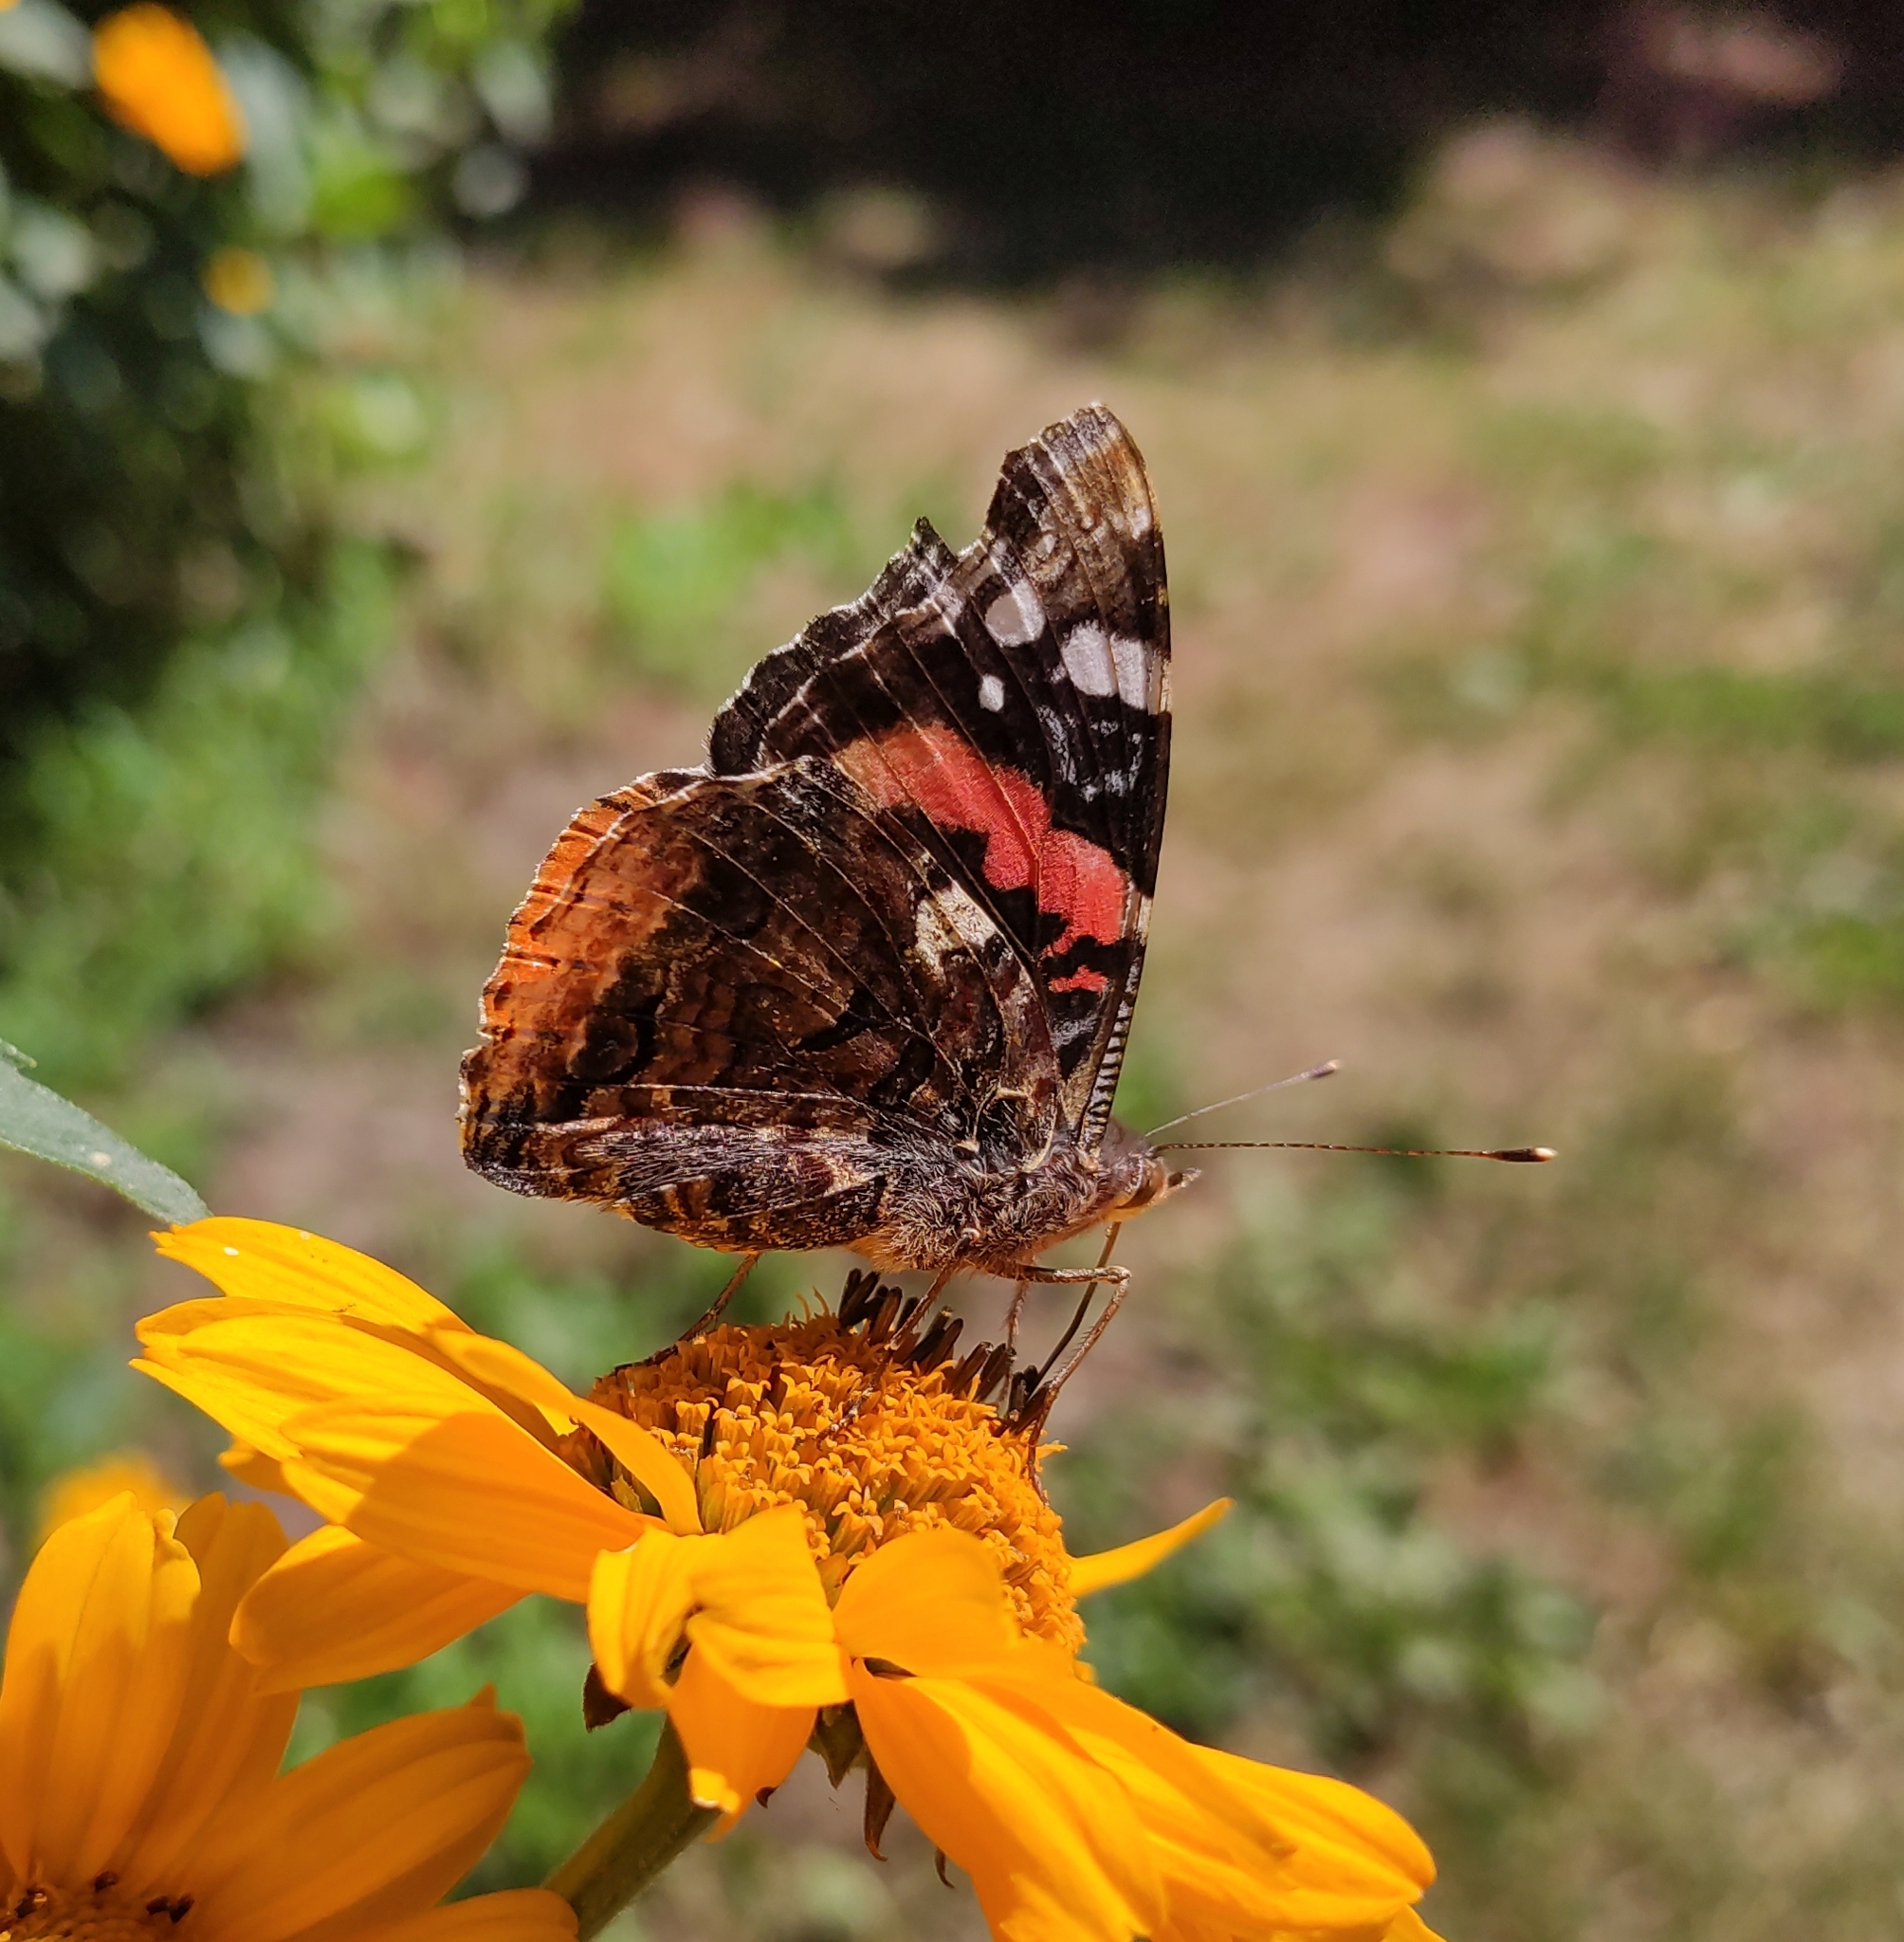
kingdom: Animalia
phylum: Arthropoda
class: Insecta
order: Lepidoptera
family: Nymphalidae
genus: Vanessa
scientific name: Vanessa atalanta
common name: Red admiral
